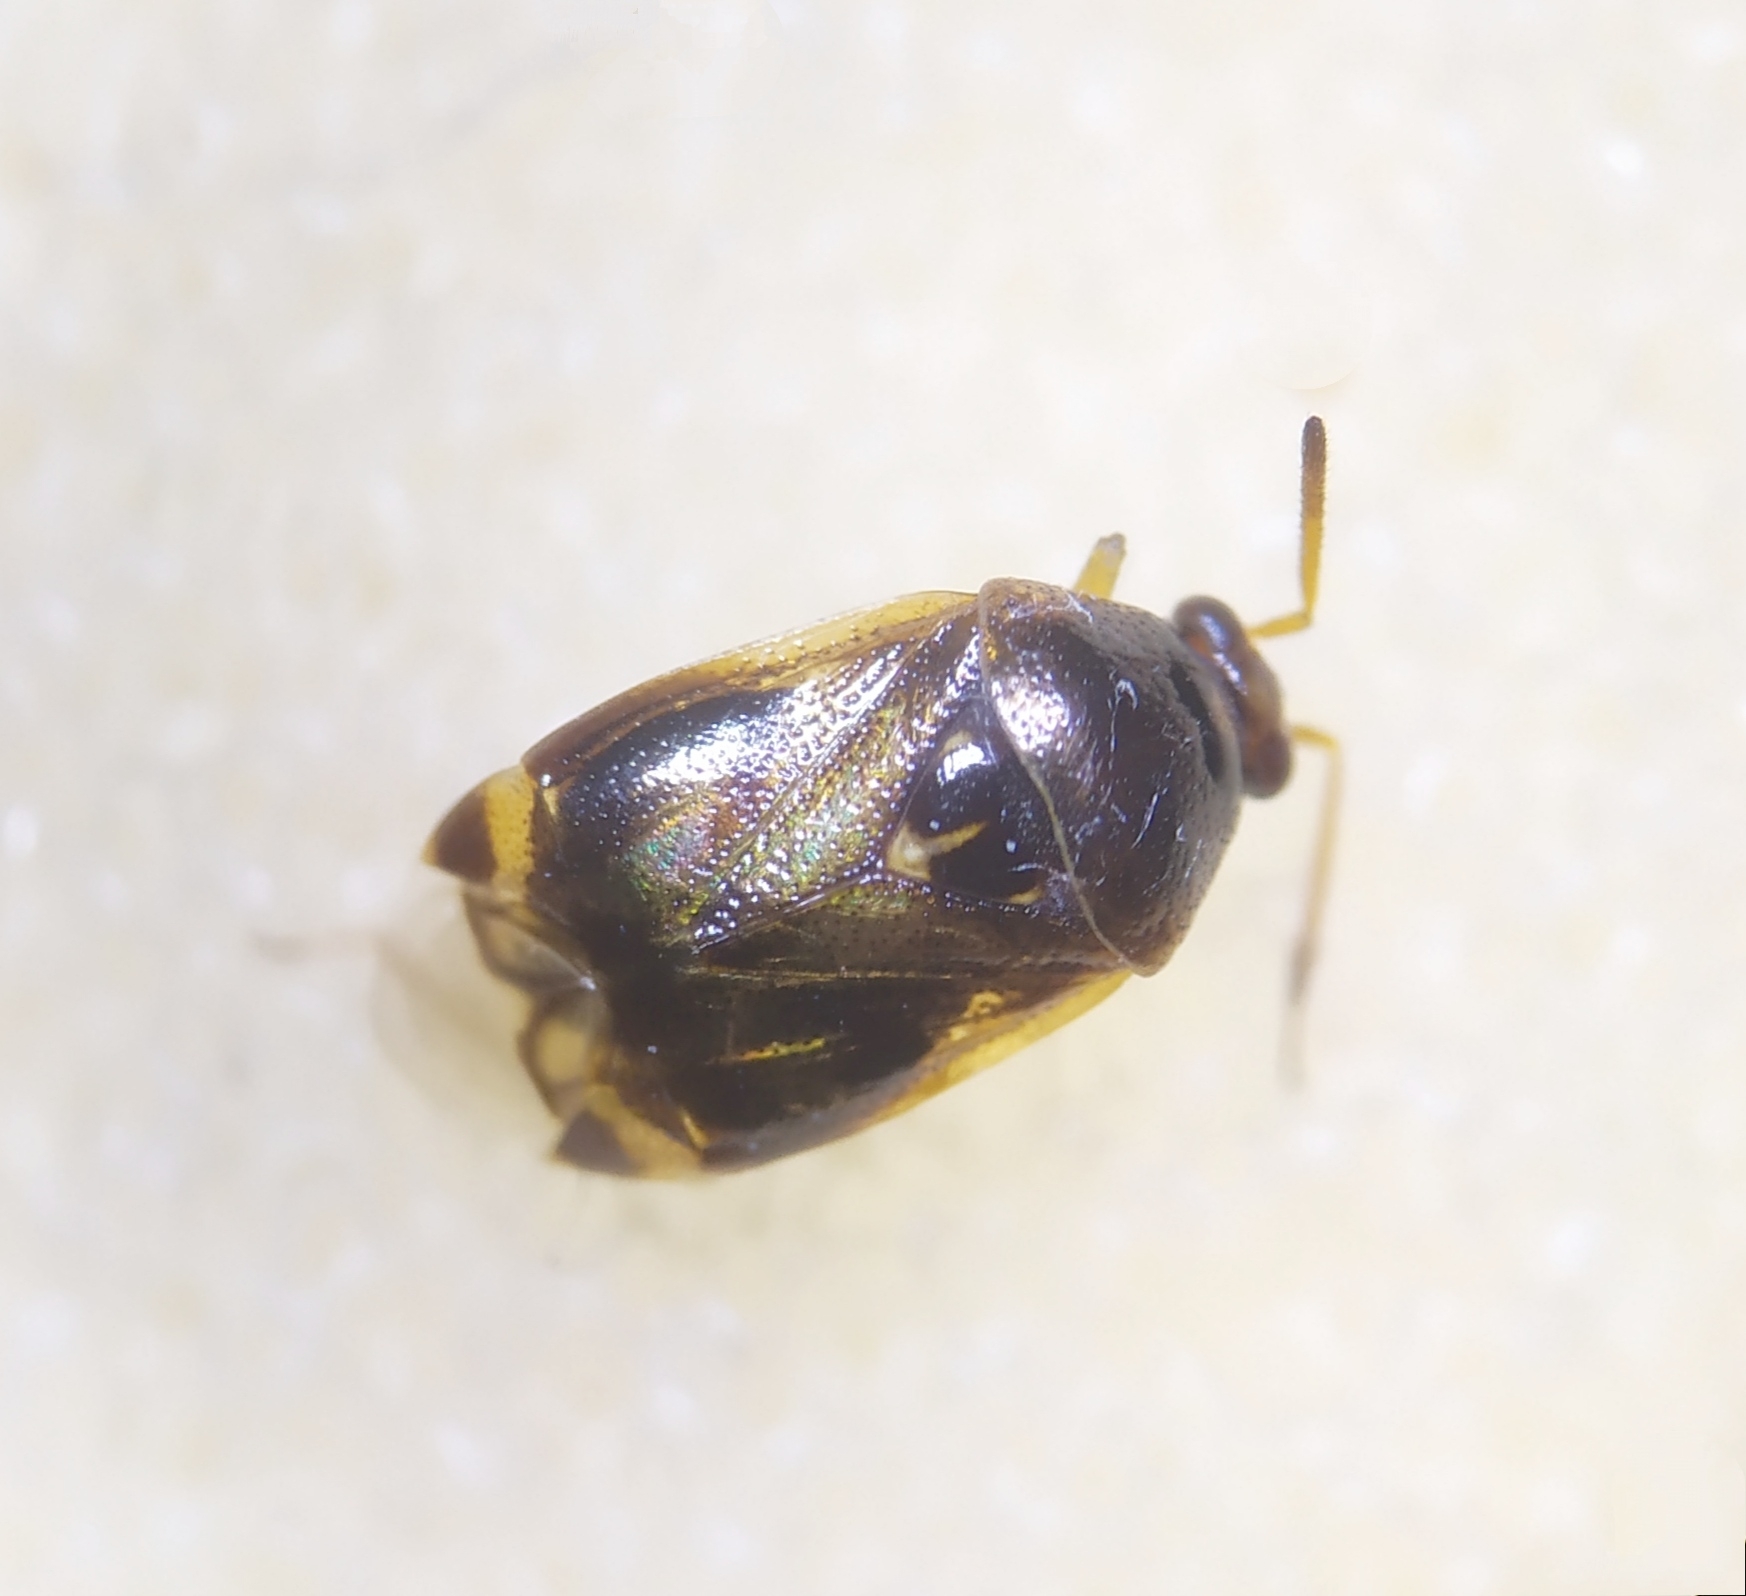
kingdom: Animalia
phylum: Arthropoda
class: Insecta
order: Hemiptera
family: Miridae
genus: Deraeocoris
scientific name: Deraeocoris lutescens
